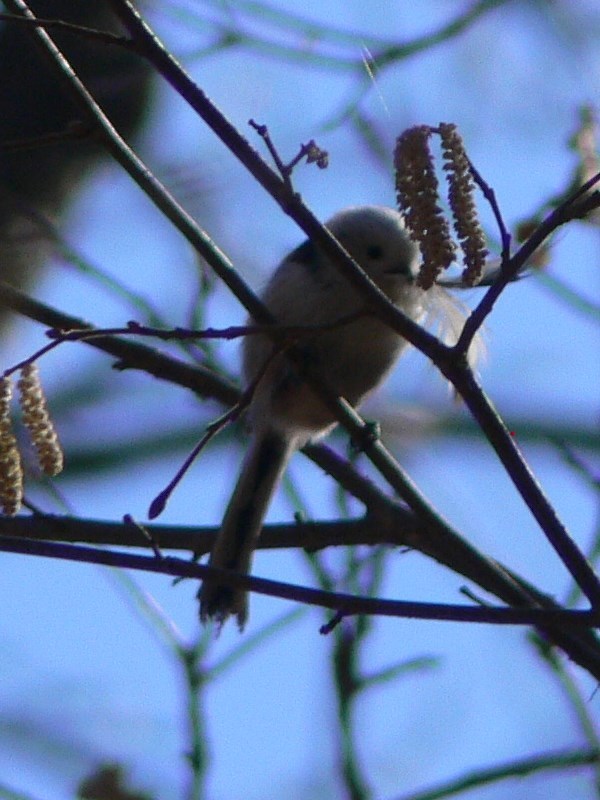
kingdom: Animalia
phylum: Chordata
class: Aves
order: Passeriformes
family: Aegithalidae
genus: Aegithalos
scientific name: Aegithalos caudatus
